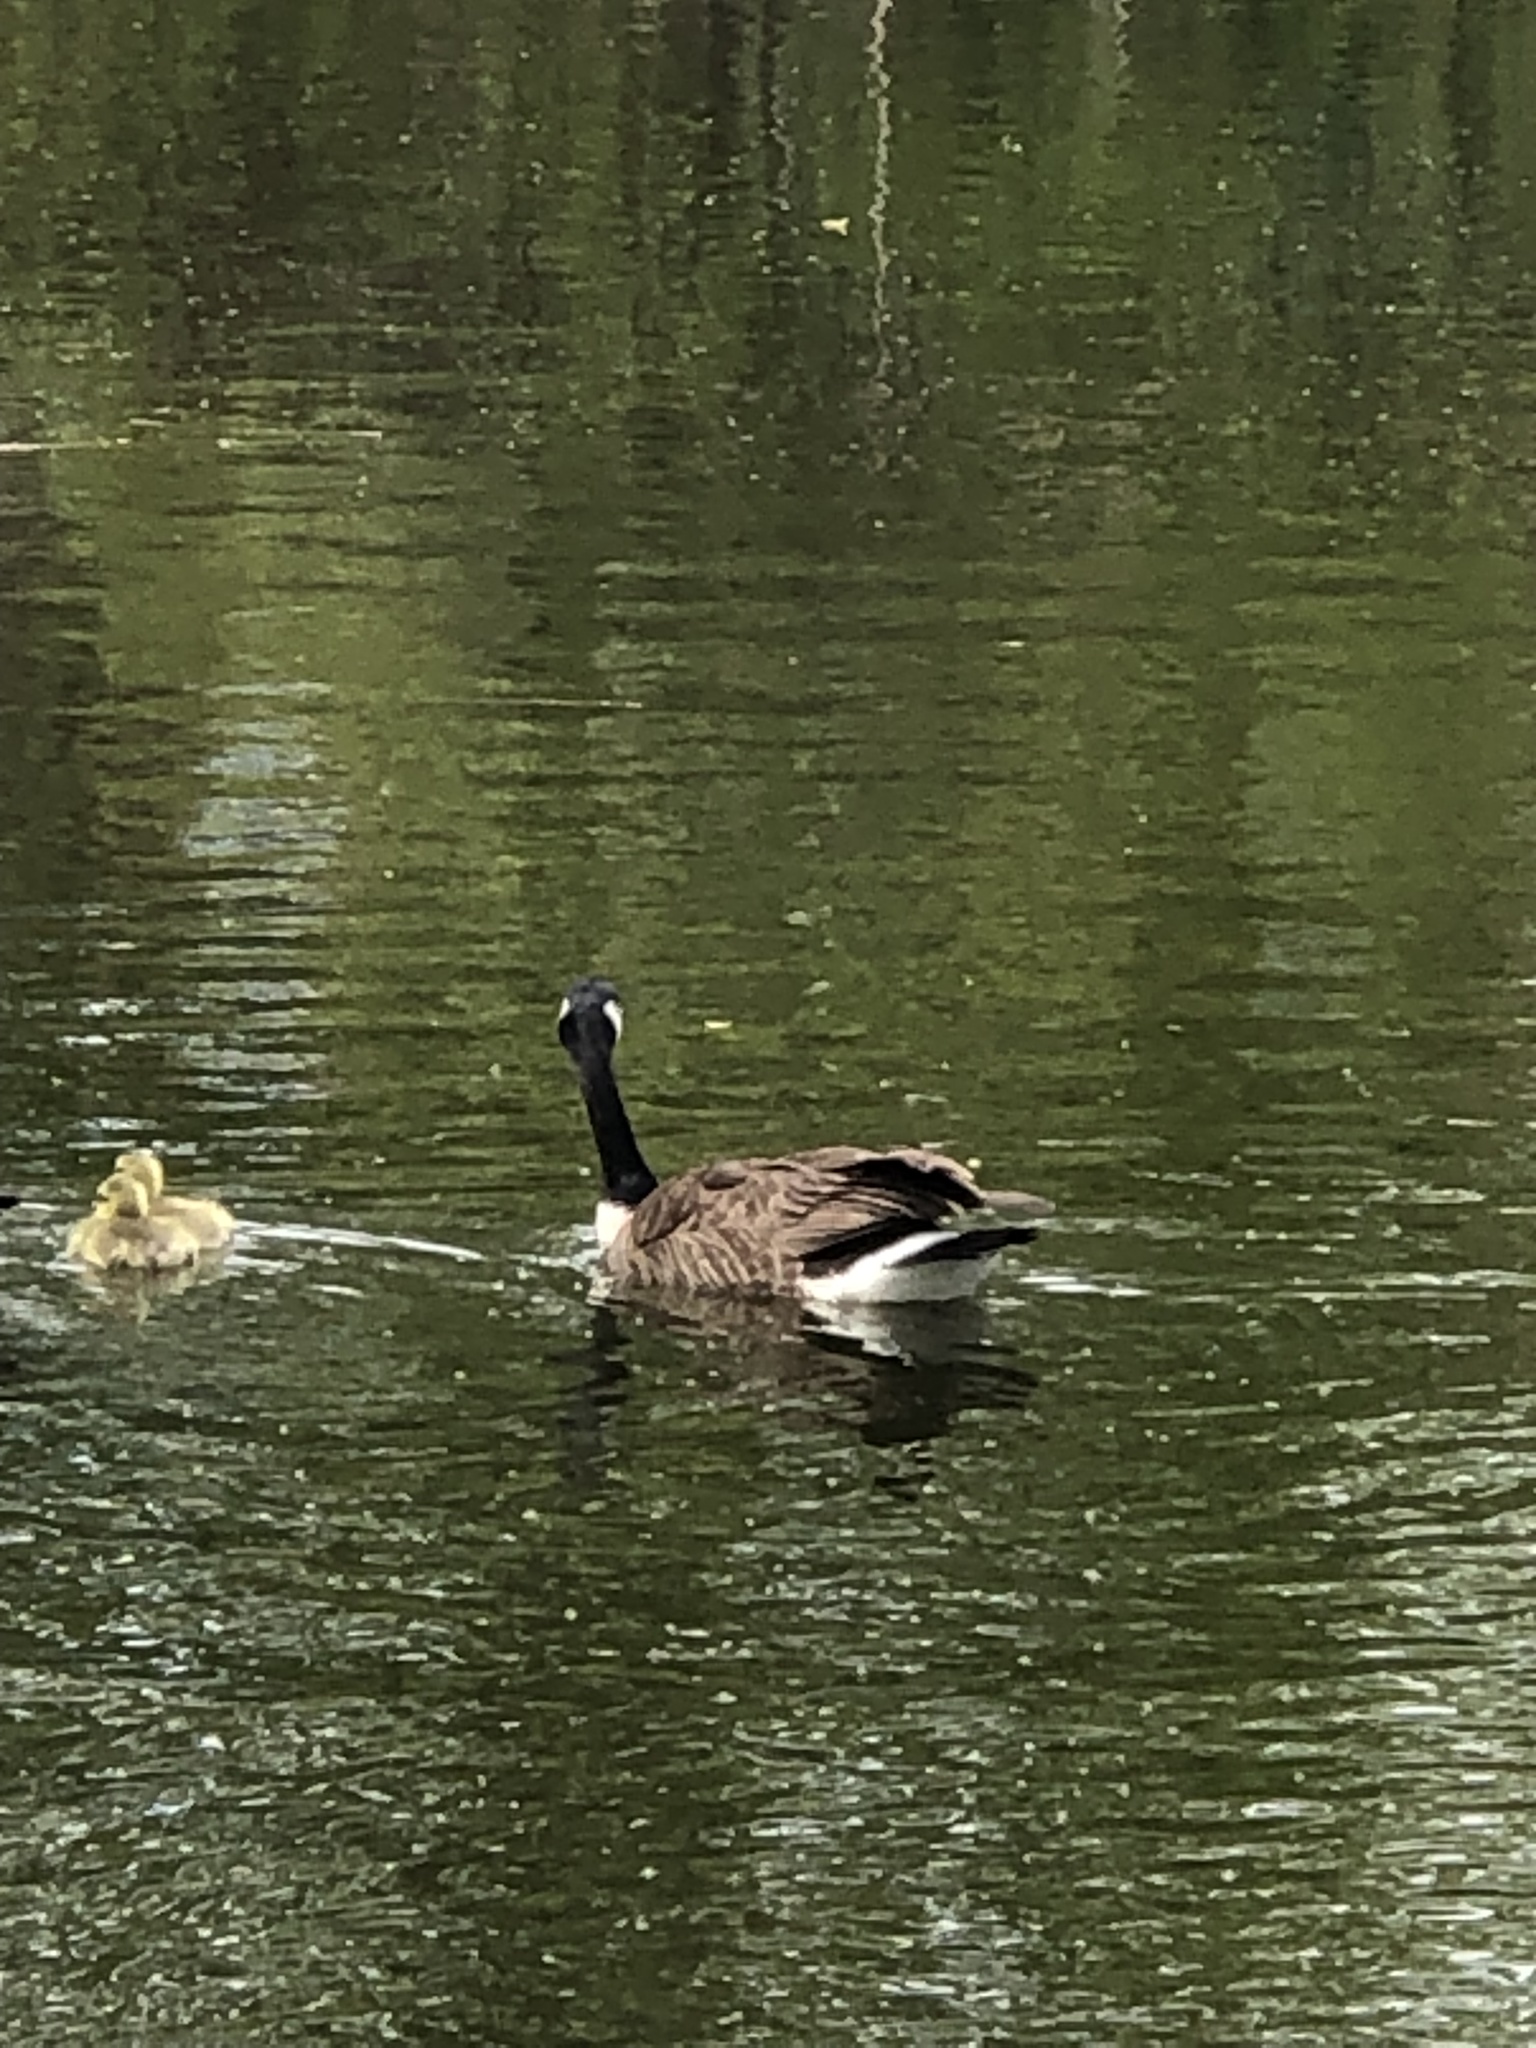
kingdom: Animalia
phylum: Chordata
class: Aves
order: Anseriformes
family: Anatidae
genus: Branta
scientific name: Branta canadensis
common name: Canada goose
